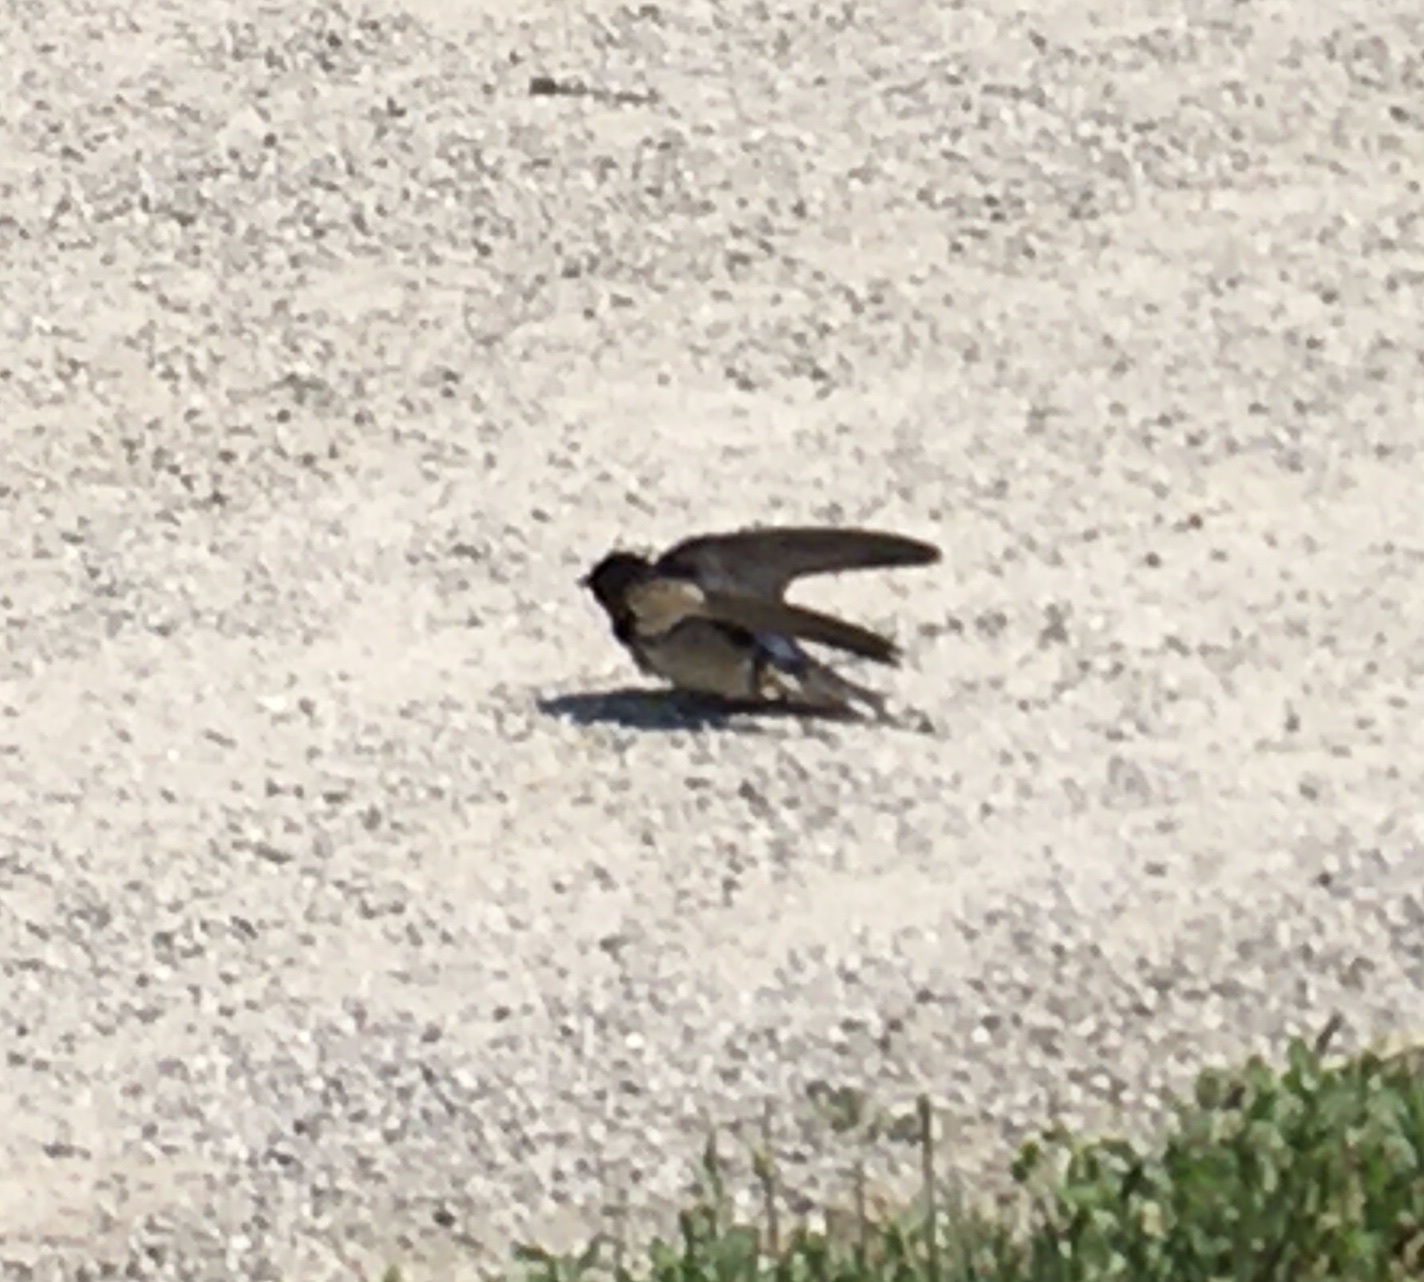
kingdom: Animalia
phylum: Chordata
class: Aves
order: Passeriformes
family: Hirundinidae
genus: Hirundo
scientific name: Hirundo rustica
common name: Barn swallow
